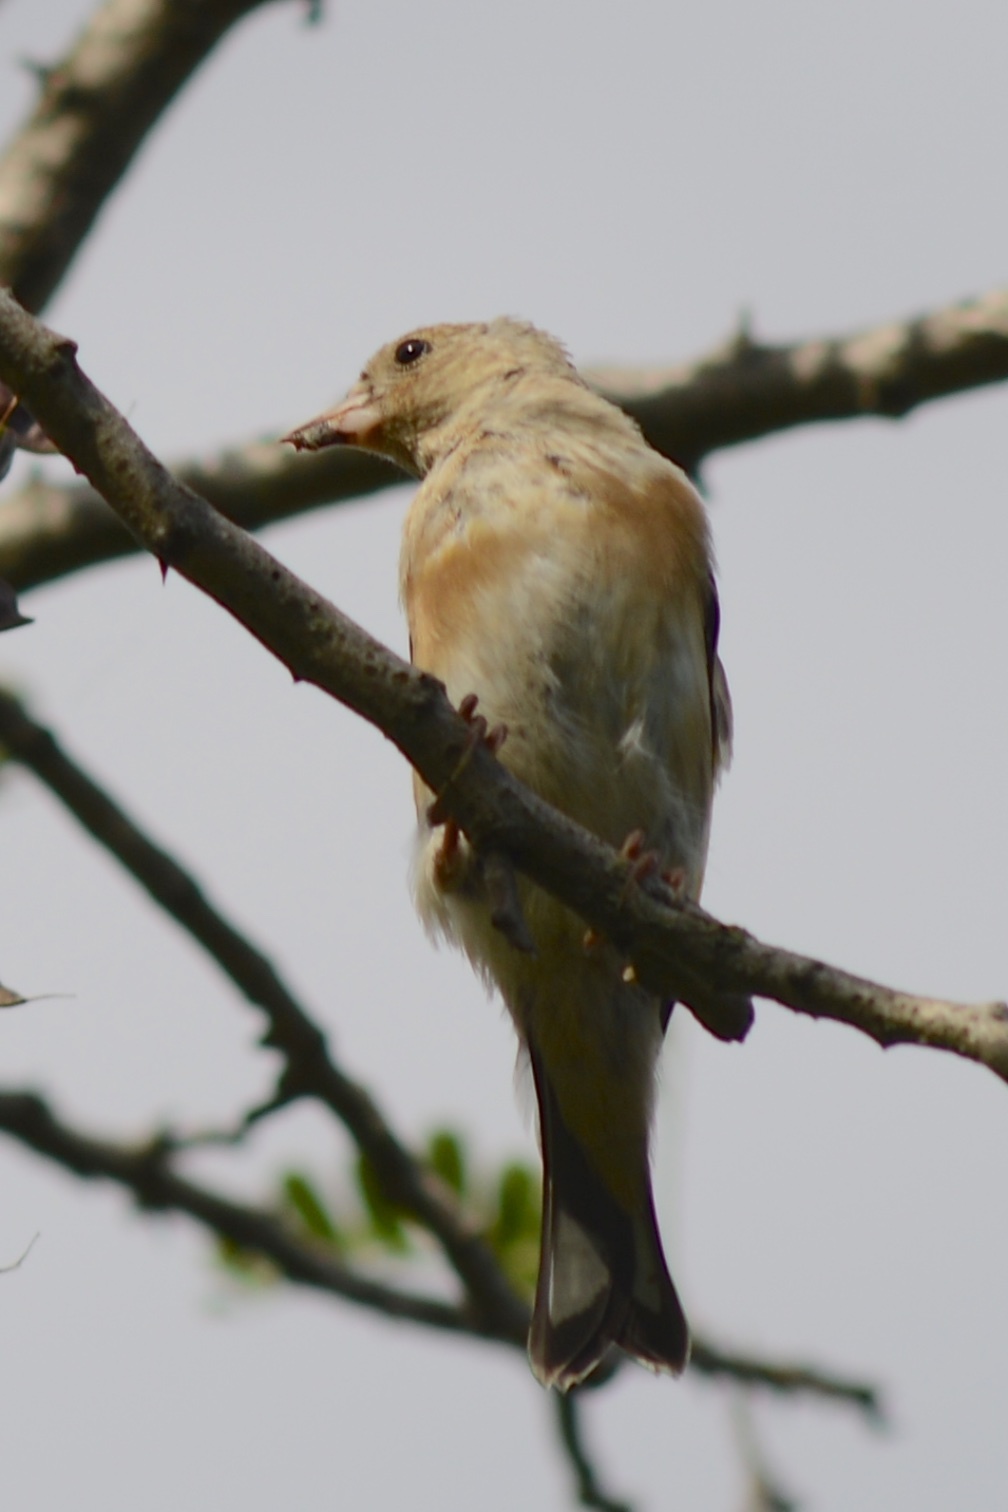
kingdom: Animalia
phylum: Chordata
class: Aves
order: Passeriformes
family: Fringillidae
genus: Carduelis
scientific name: Carduelis carduelis
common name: European goldfinch
